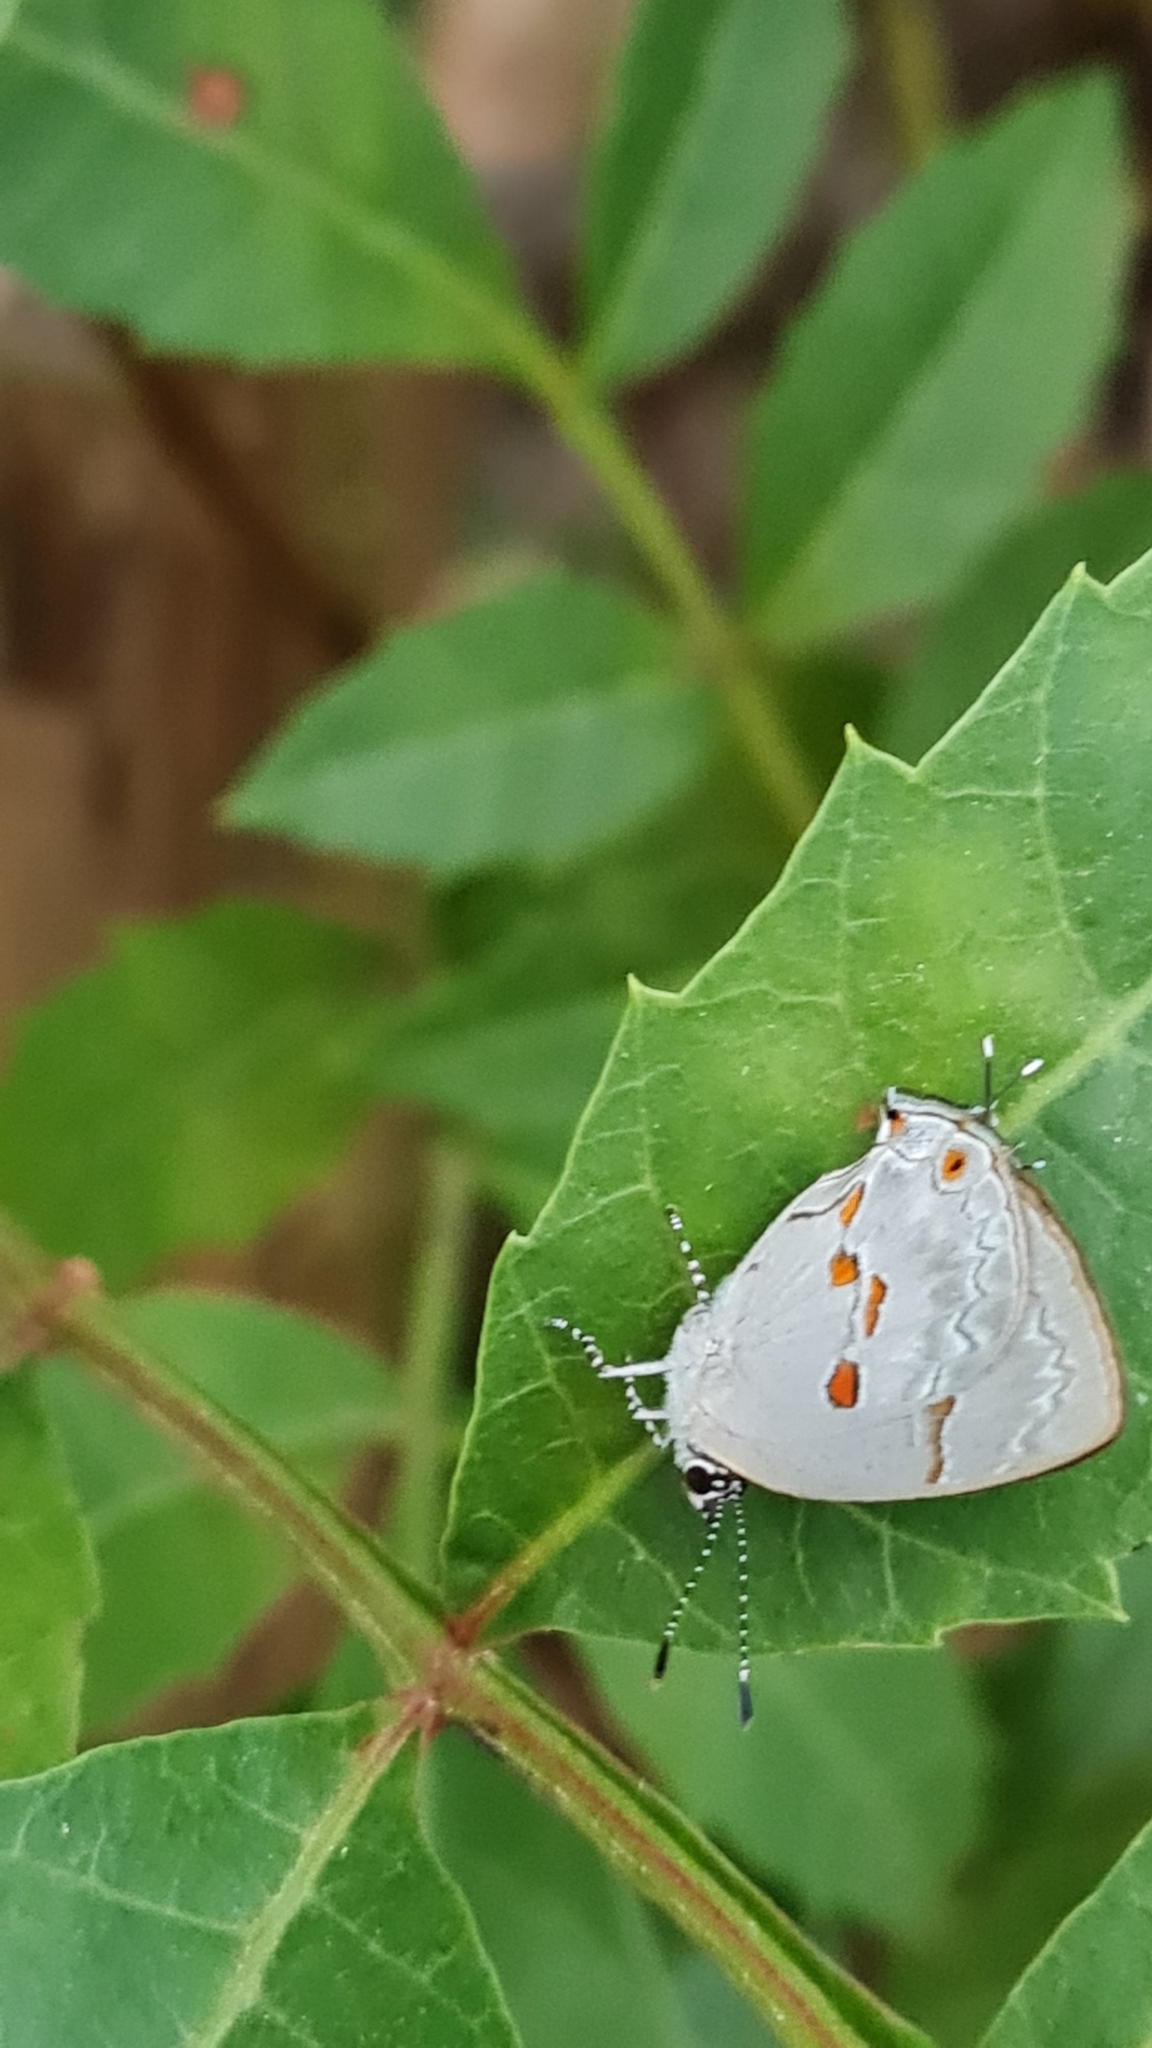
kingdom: Animalia
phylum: Arthropoda
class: Insecta
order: Lepidoptera
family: Lycaenidae
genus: Thecla
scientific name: Thecla carnica
